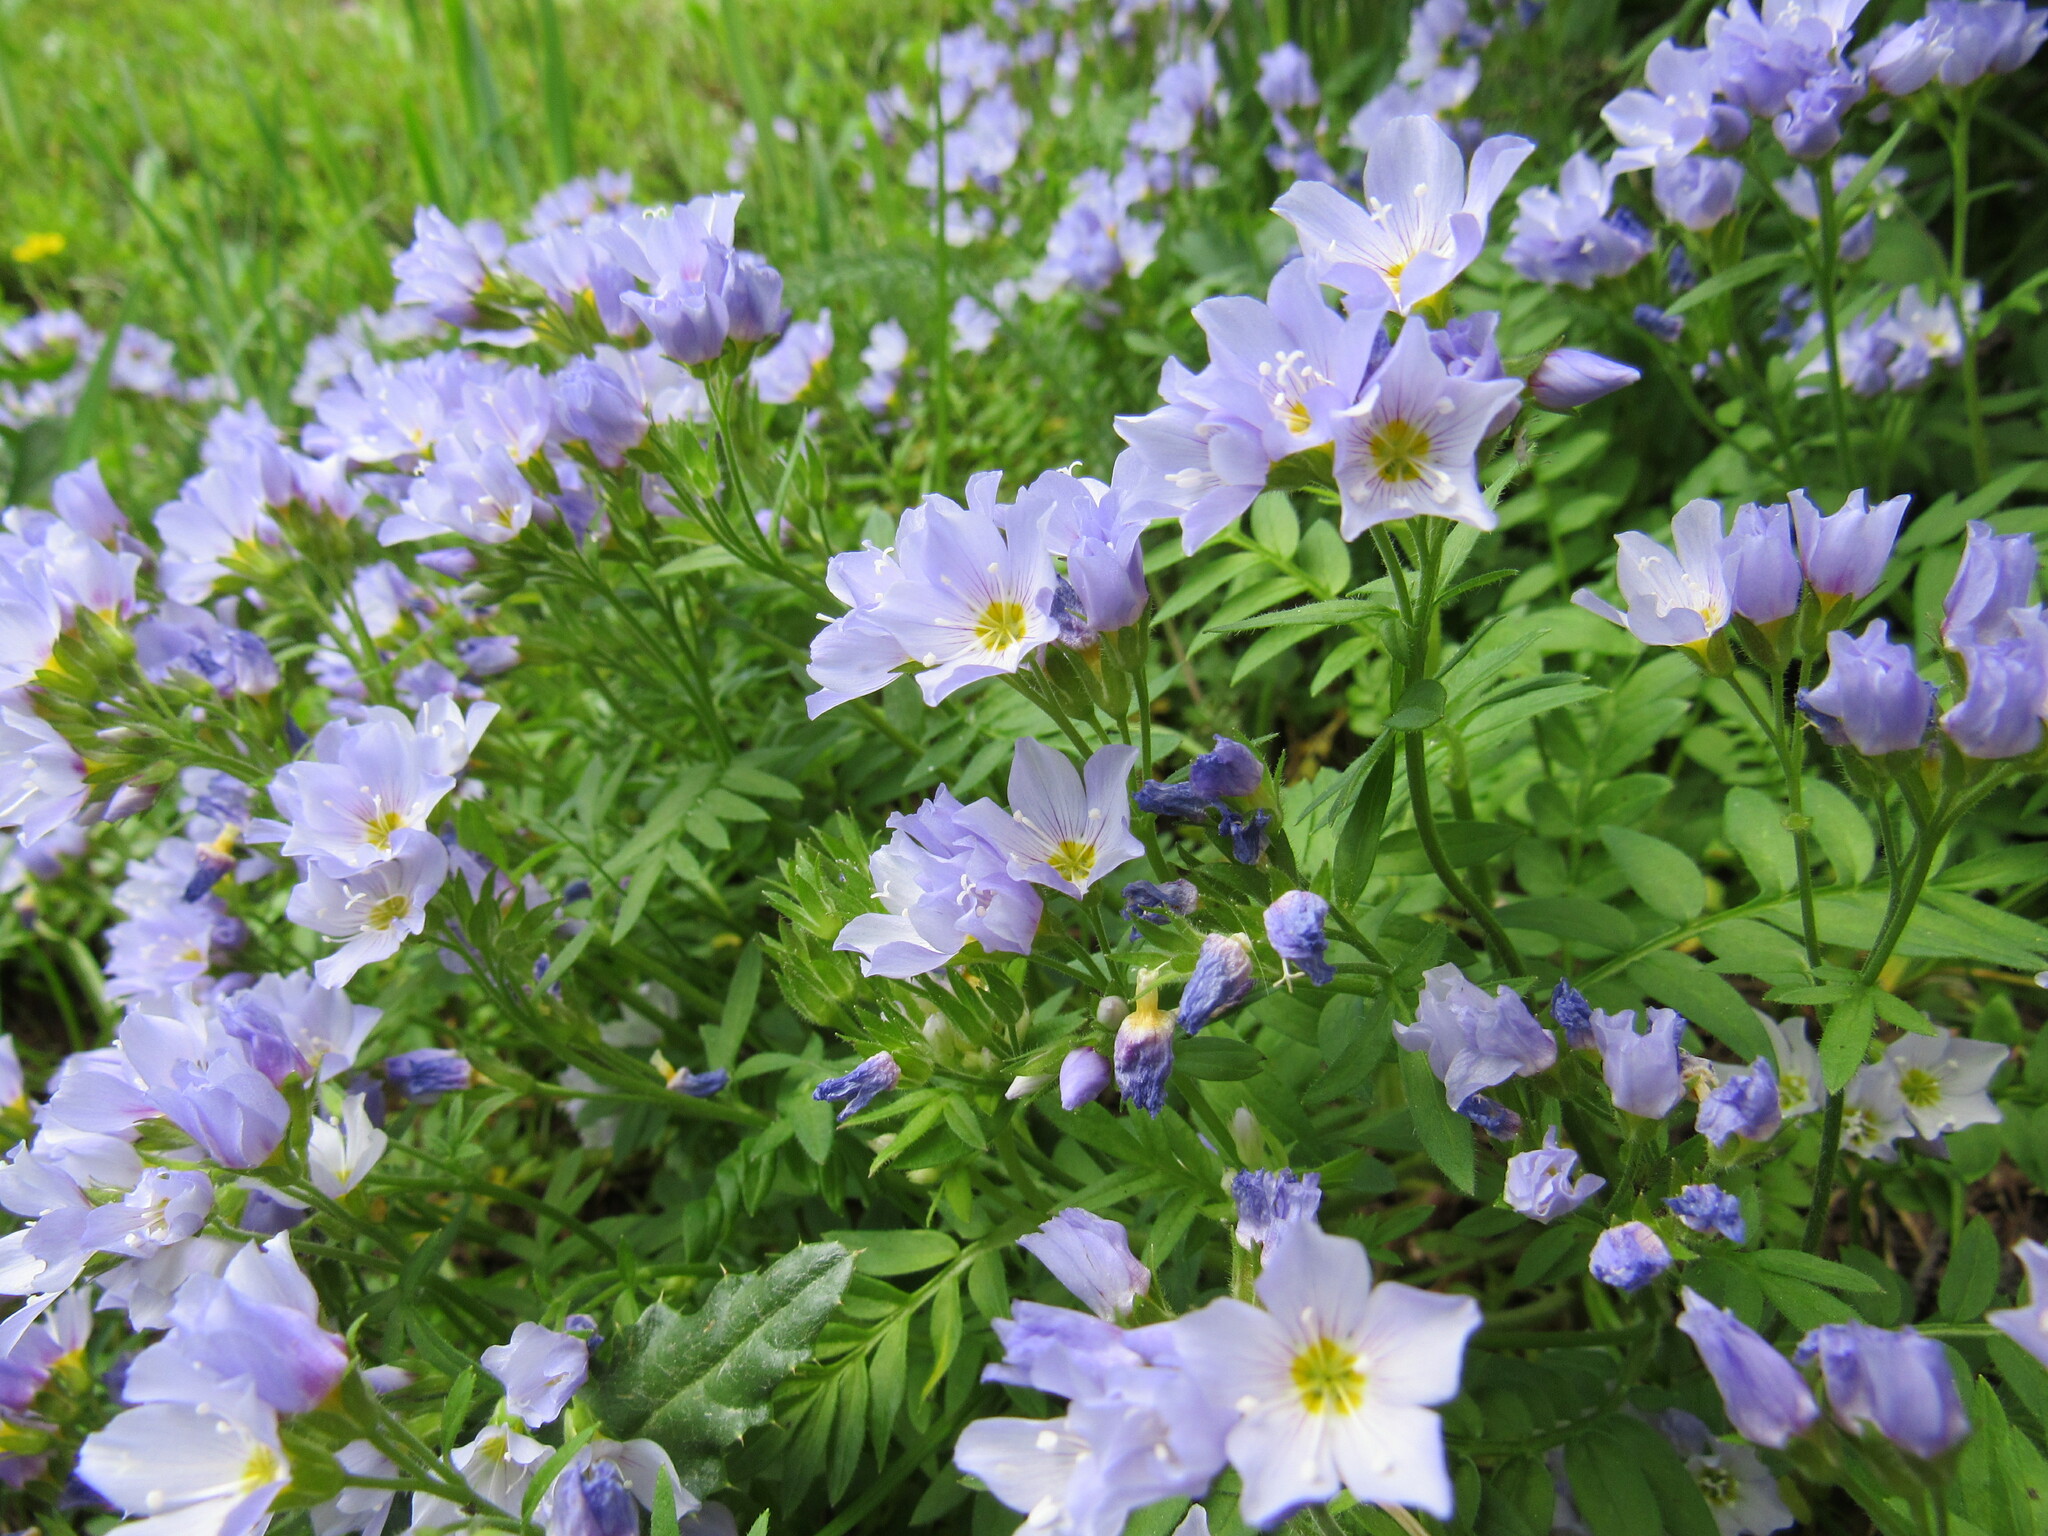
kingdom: Plantae
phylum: Tracheophyta
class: Magnoliopsida
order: Ericales
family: Polemoniaceae
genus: Polemonium
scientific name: Polemonium pulcherrimum
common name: Short jacob's-ladder
